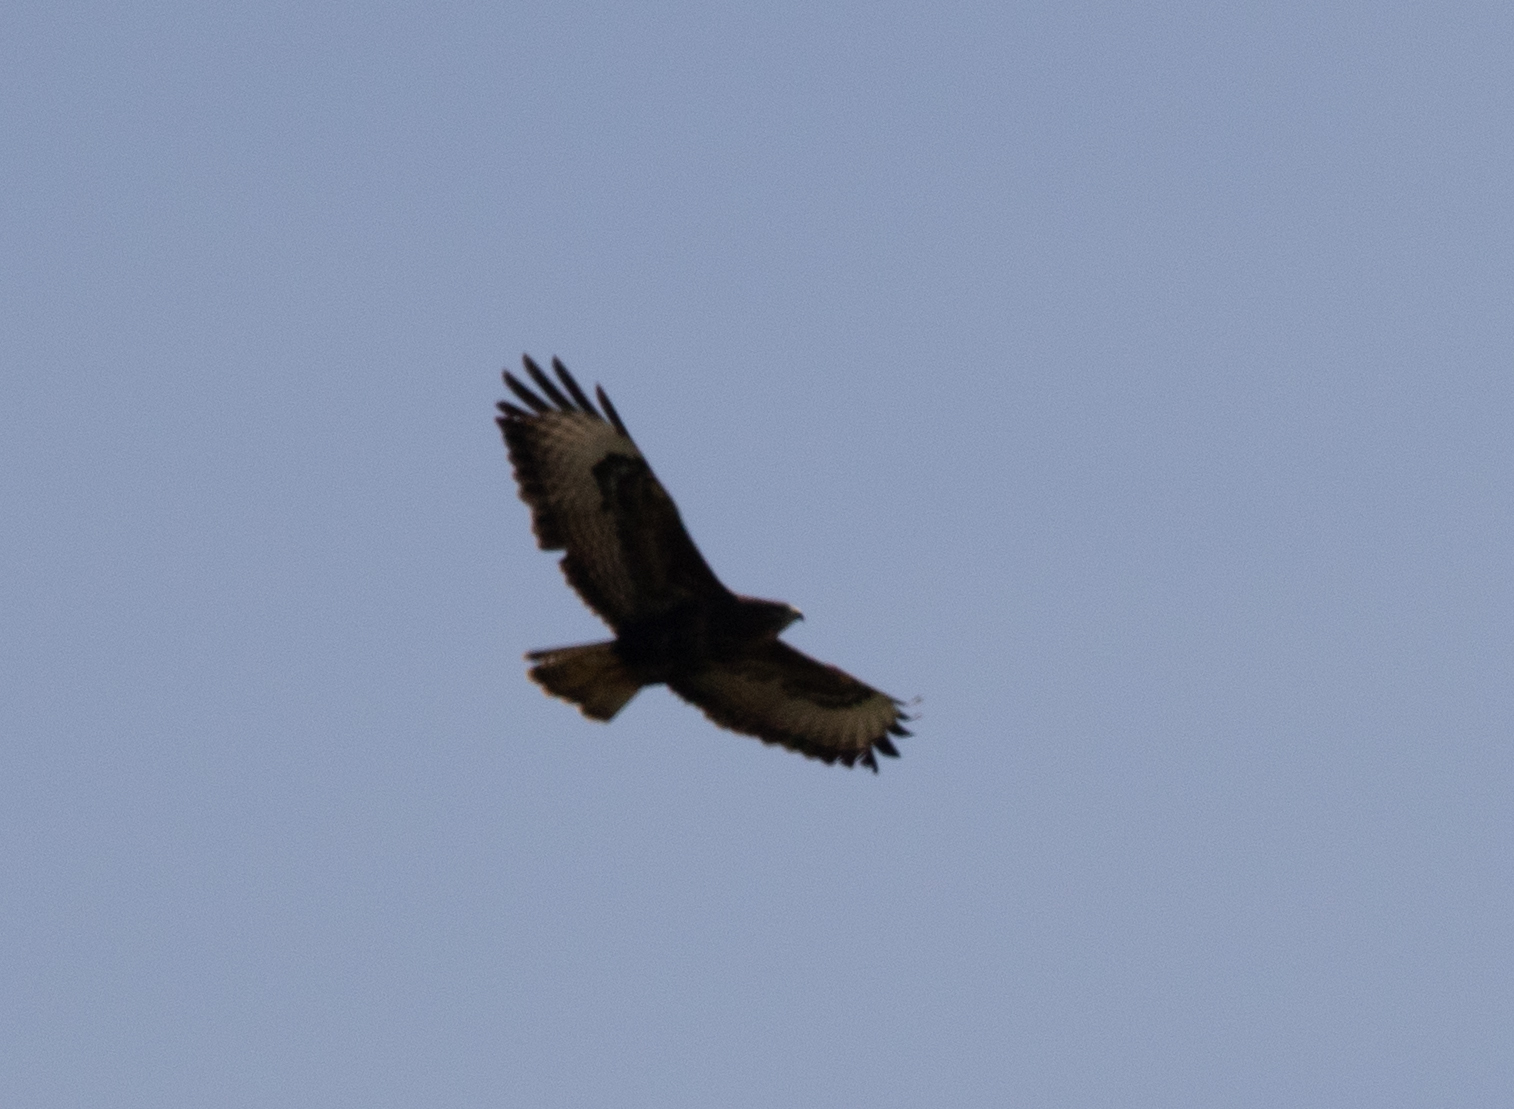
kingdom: Animalia
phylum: Chordata
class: Aves
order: Accipitriformes
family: Accipitridae
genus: Buteo
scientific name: Buteo buteo
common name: Common buzzard
